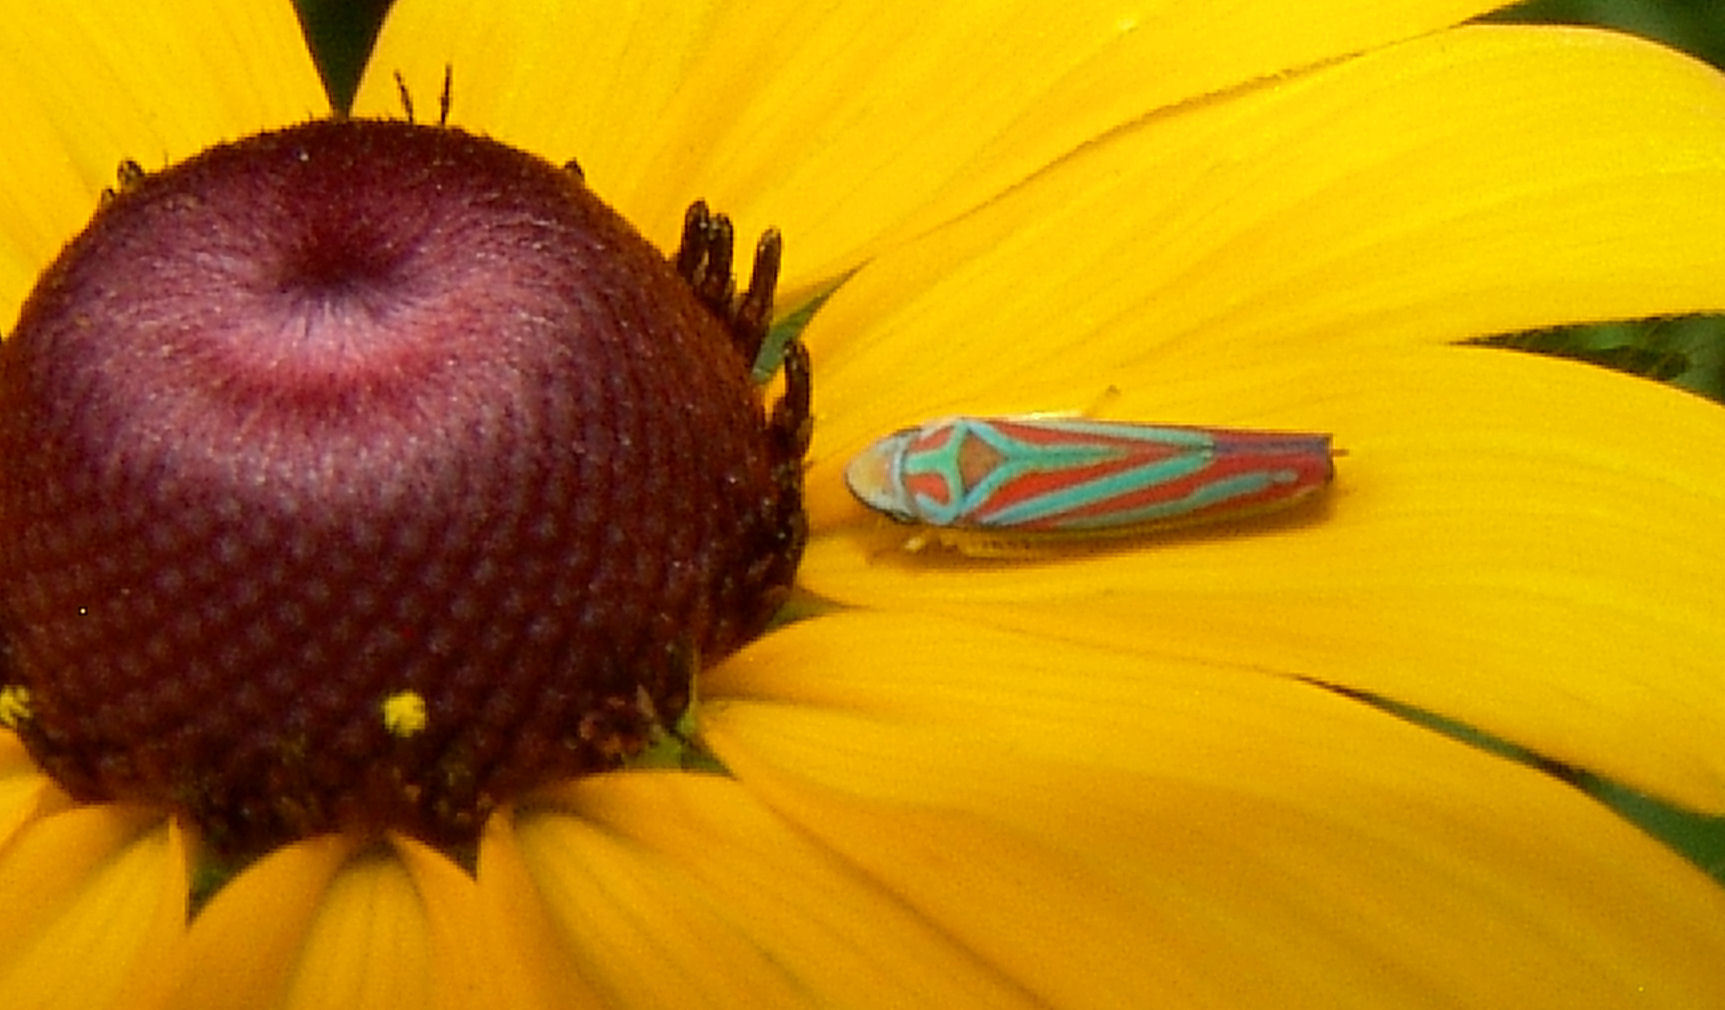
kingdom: Animalia
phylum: Arthropoda
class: Insecta
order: Hemiptera
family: Cicadellidae
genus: Graphocephala
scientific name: Graphocephala coccinea
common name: Candy-striped leafhopper
